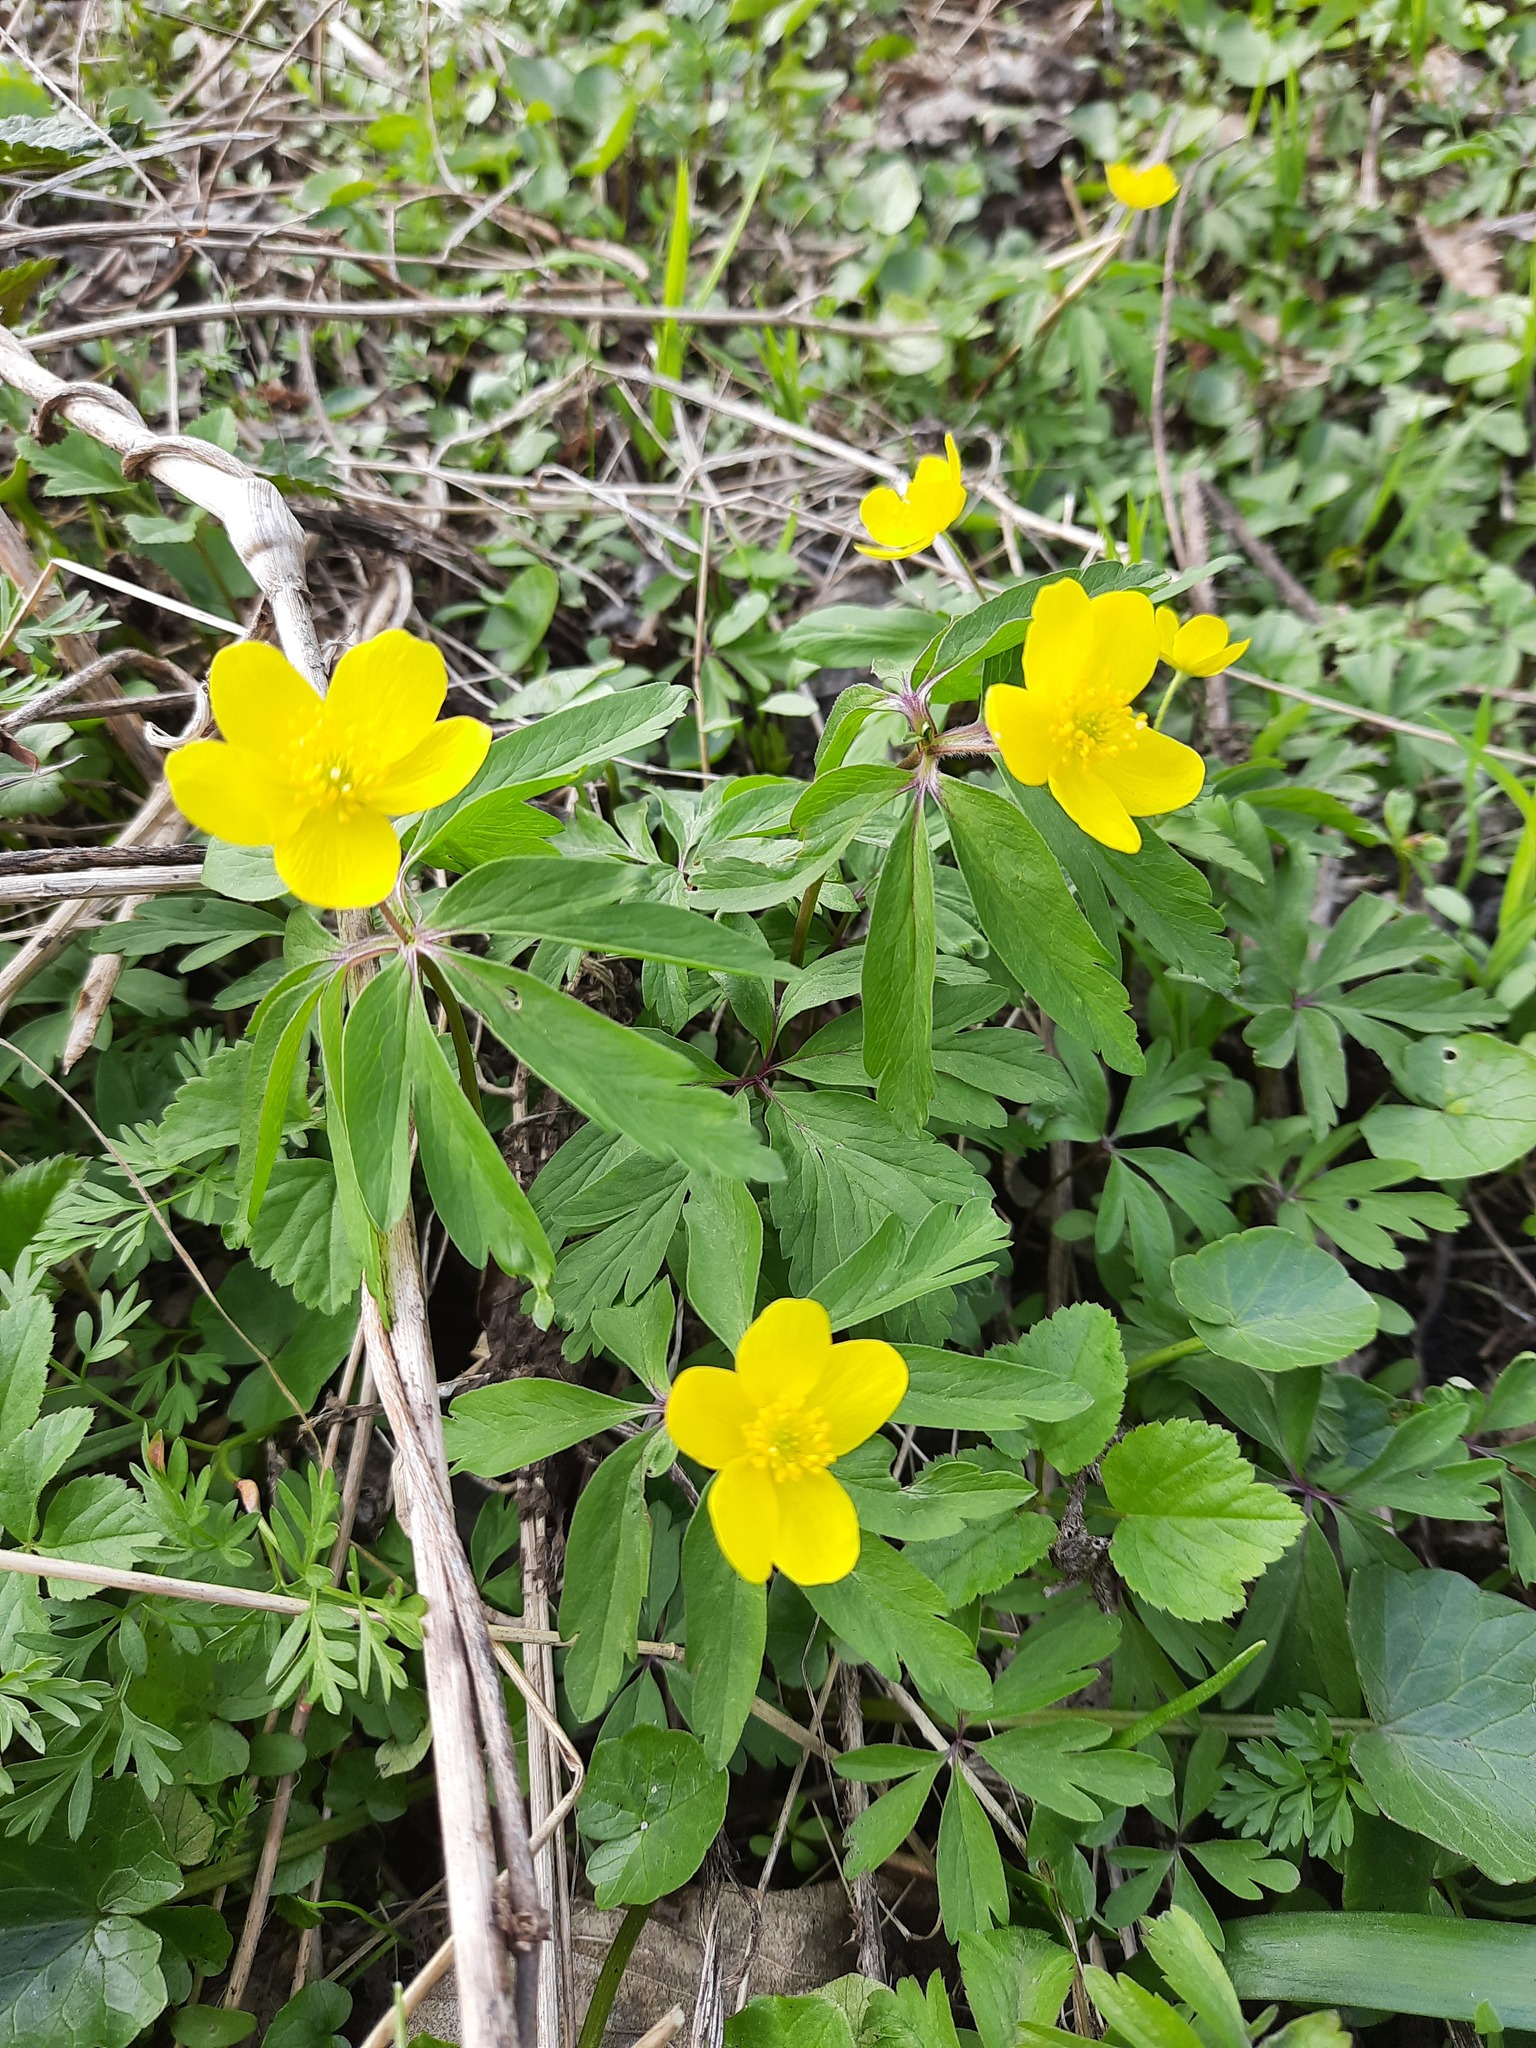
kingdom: Plantae
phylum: Tracheophyta
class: Magnoliopsida
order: Ranunculales
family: Ranunculaceae
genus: Anemone
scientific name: Anemone ranunculoides
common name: Yellow anemone
